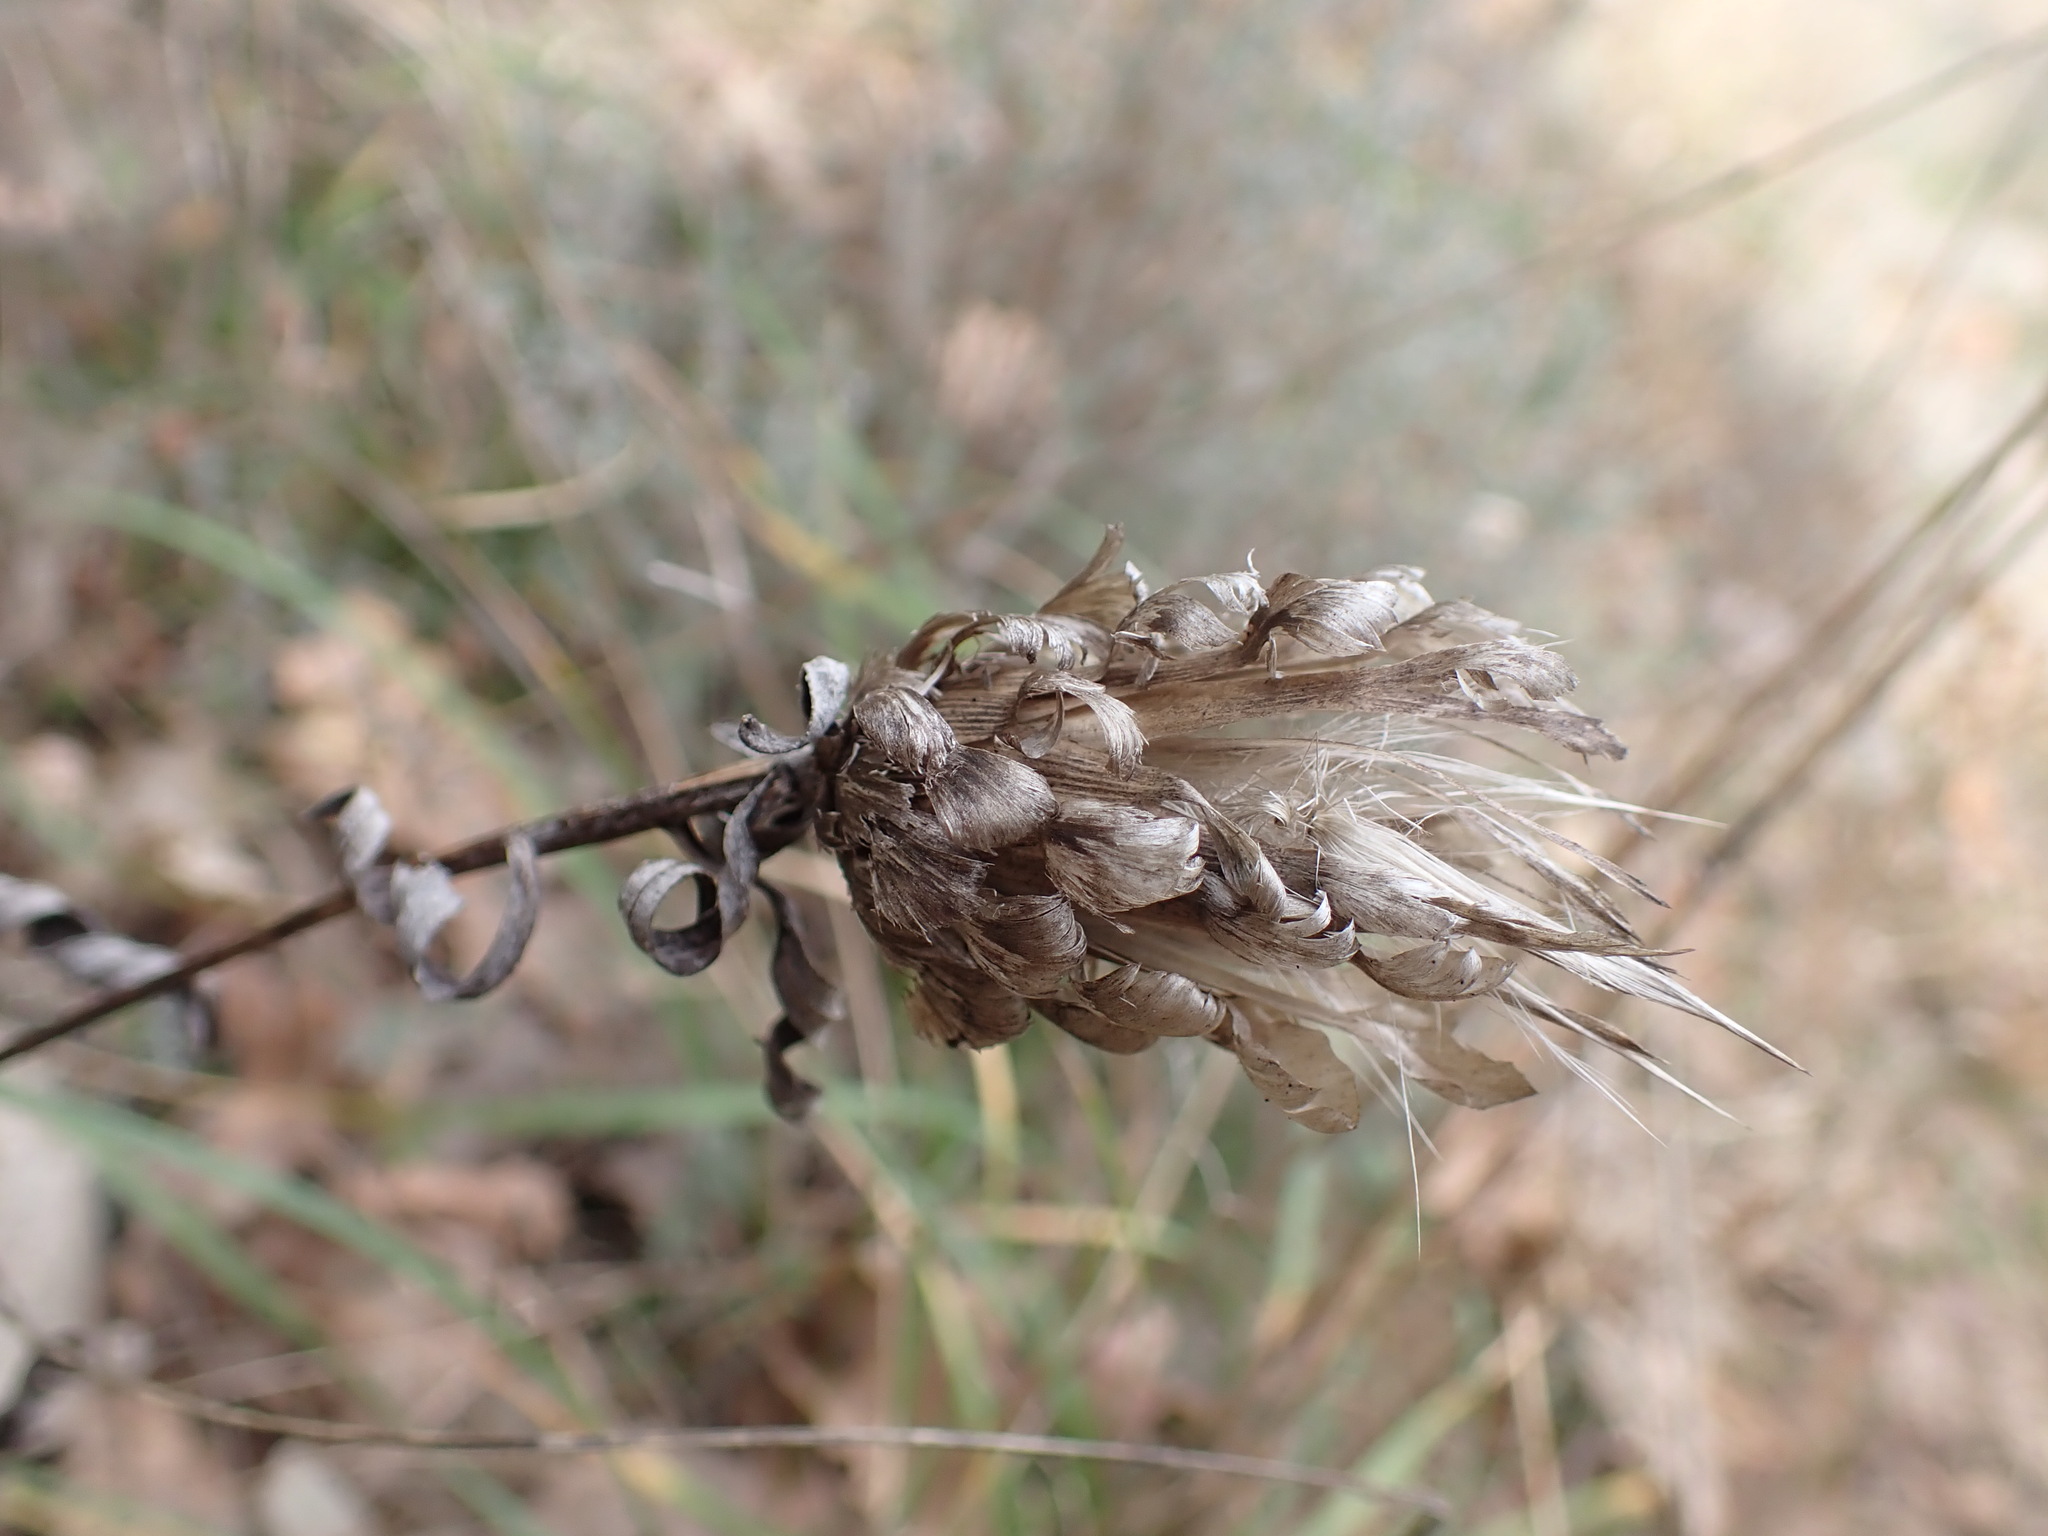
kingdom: Plantae
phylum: Tracheophyta
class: Magnoliopsida
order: Asterales
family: Asteraceae
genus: Leuzea
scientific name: Leuzea conifera
